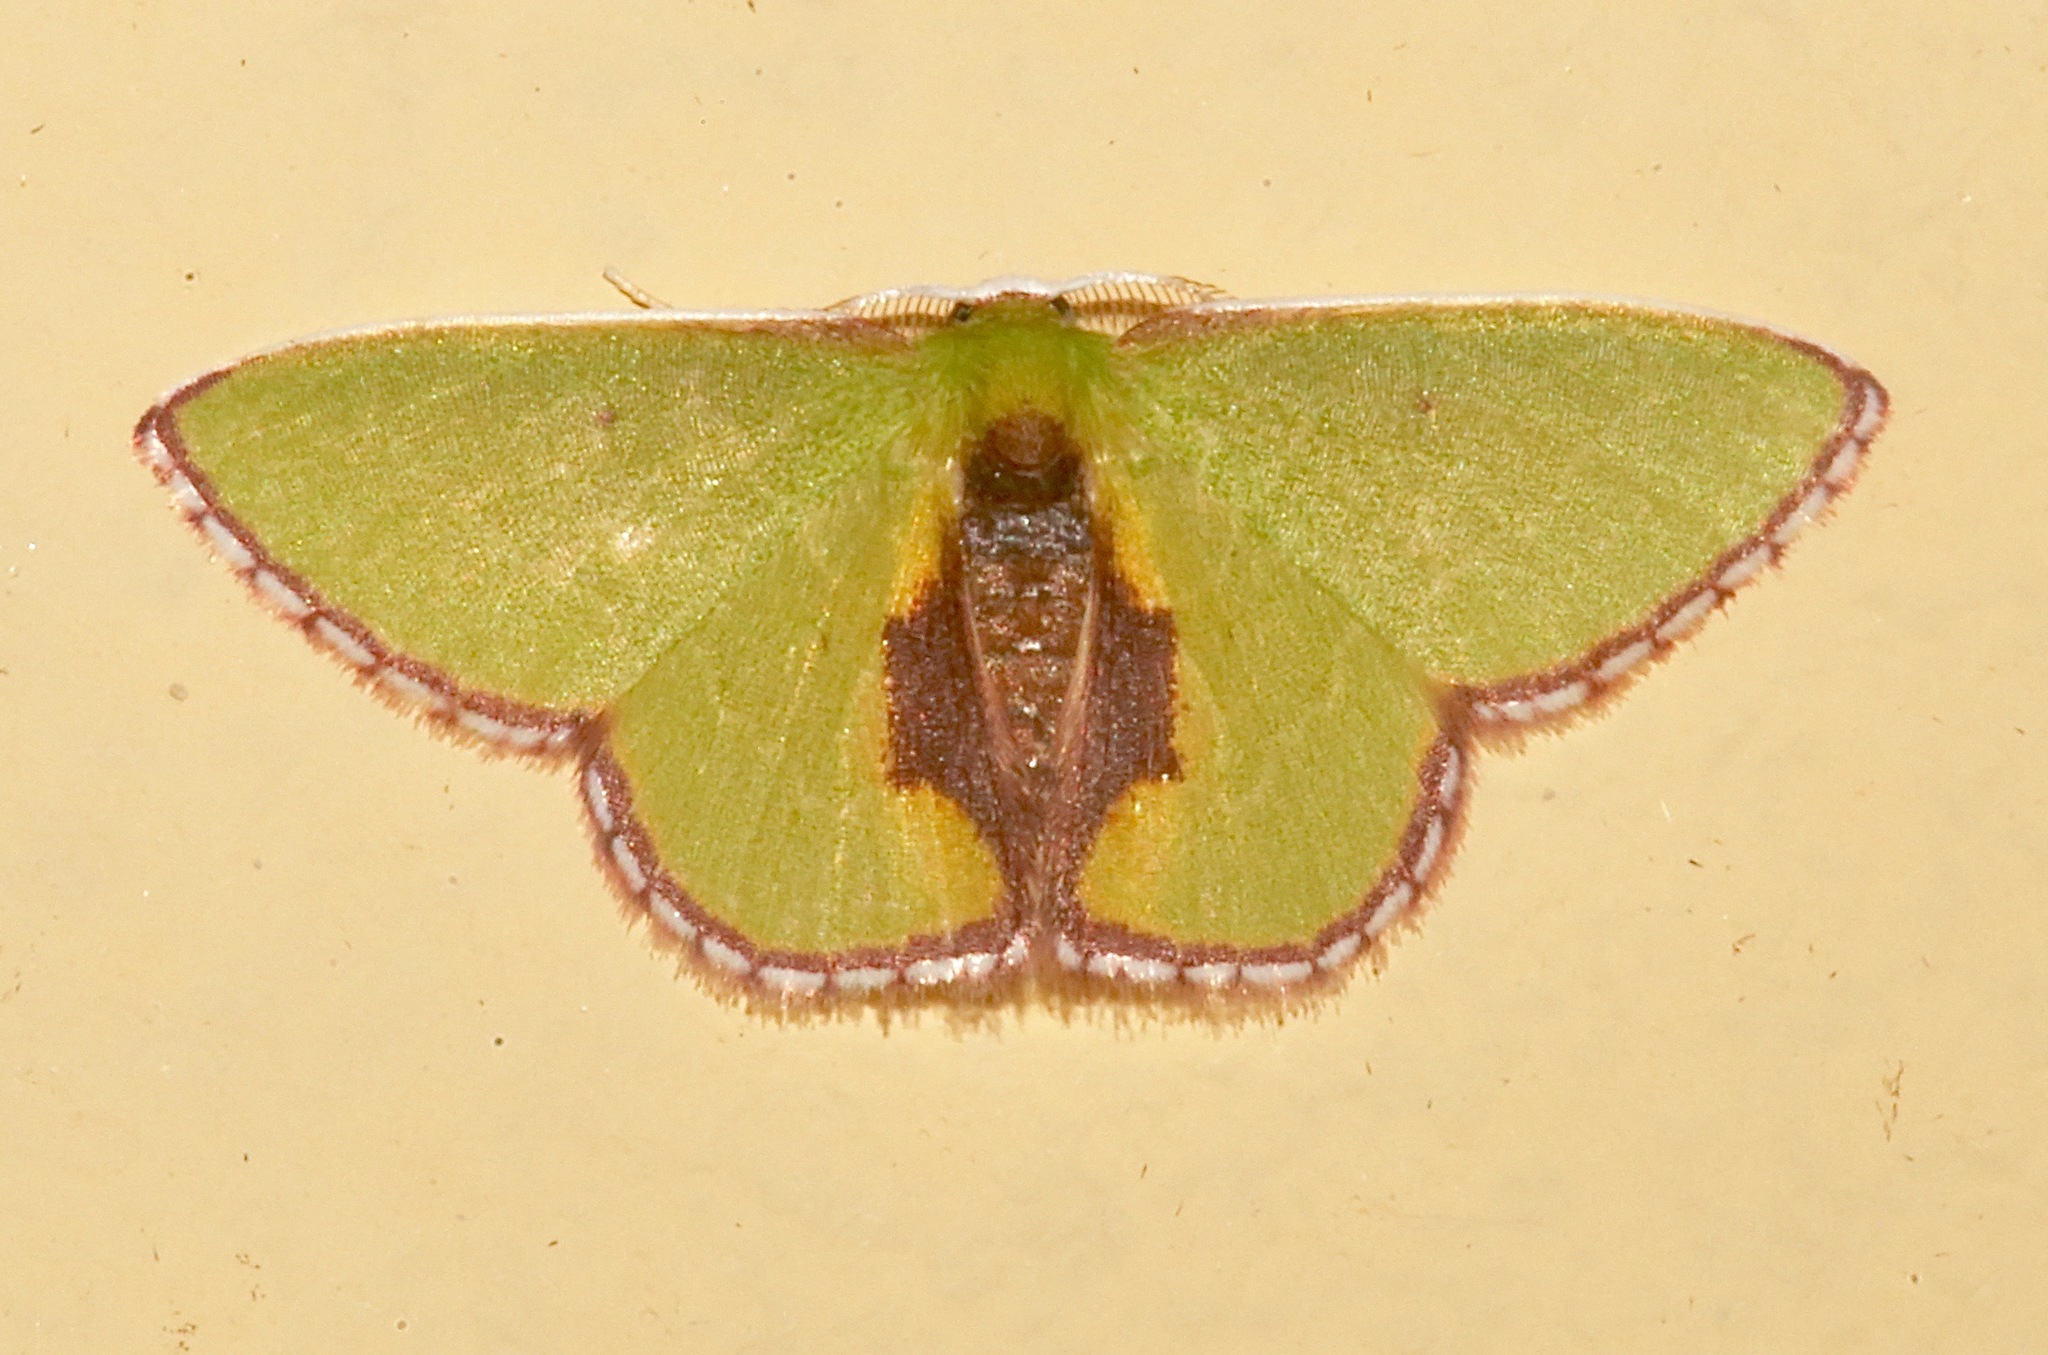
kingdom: Animalia
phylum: Arthropoda
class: Insecta
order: Lepidoptera
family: Geometridae
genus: Synchlora
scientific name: Synchlora astraeoides
